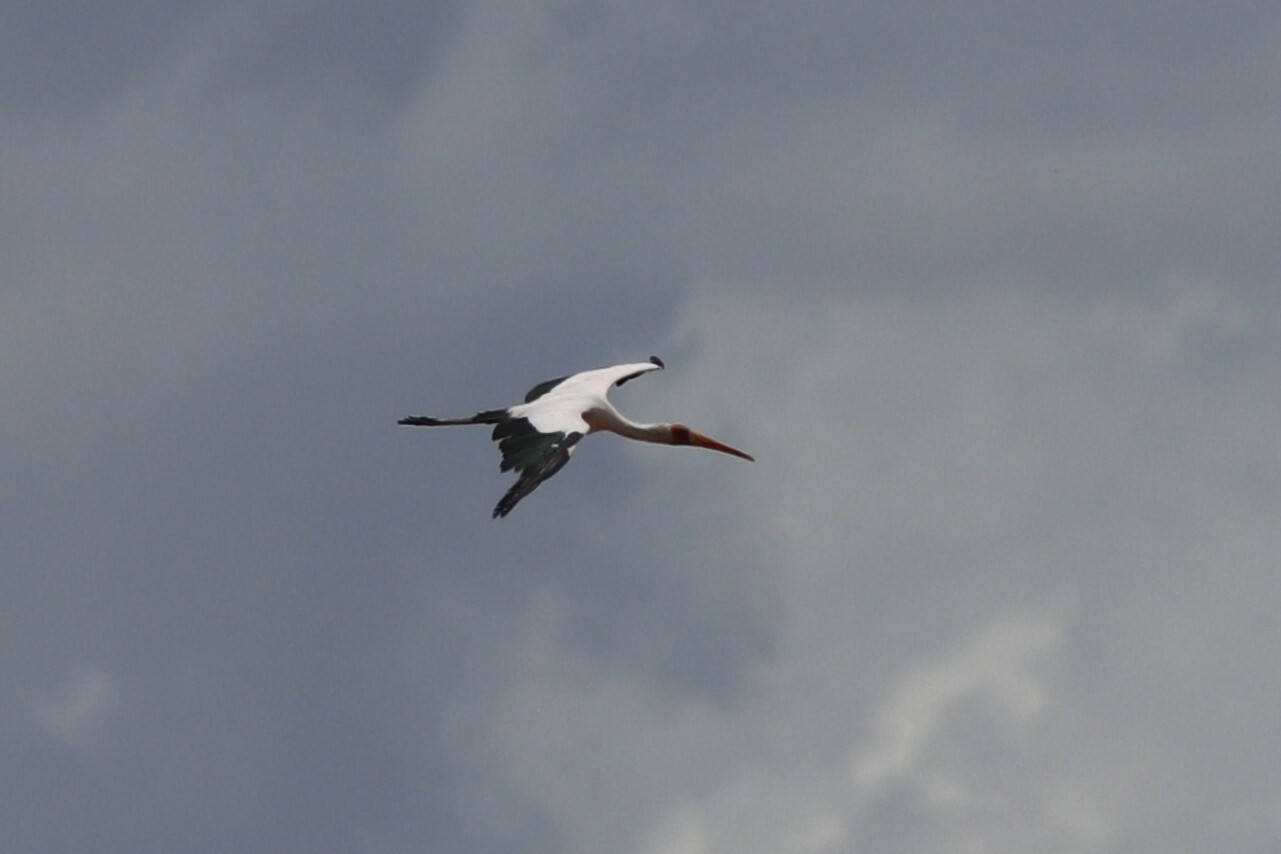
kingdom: Animalia
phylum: Chordata
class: Aves
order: Ciconiiformes
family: Ciconiidae
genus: Mycteria
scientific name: Mycteria ibis
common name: Yellow-billed stork
